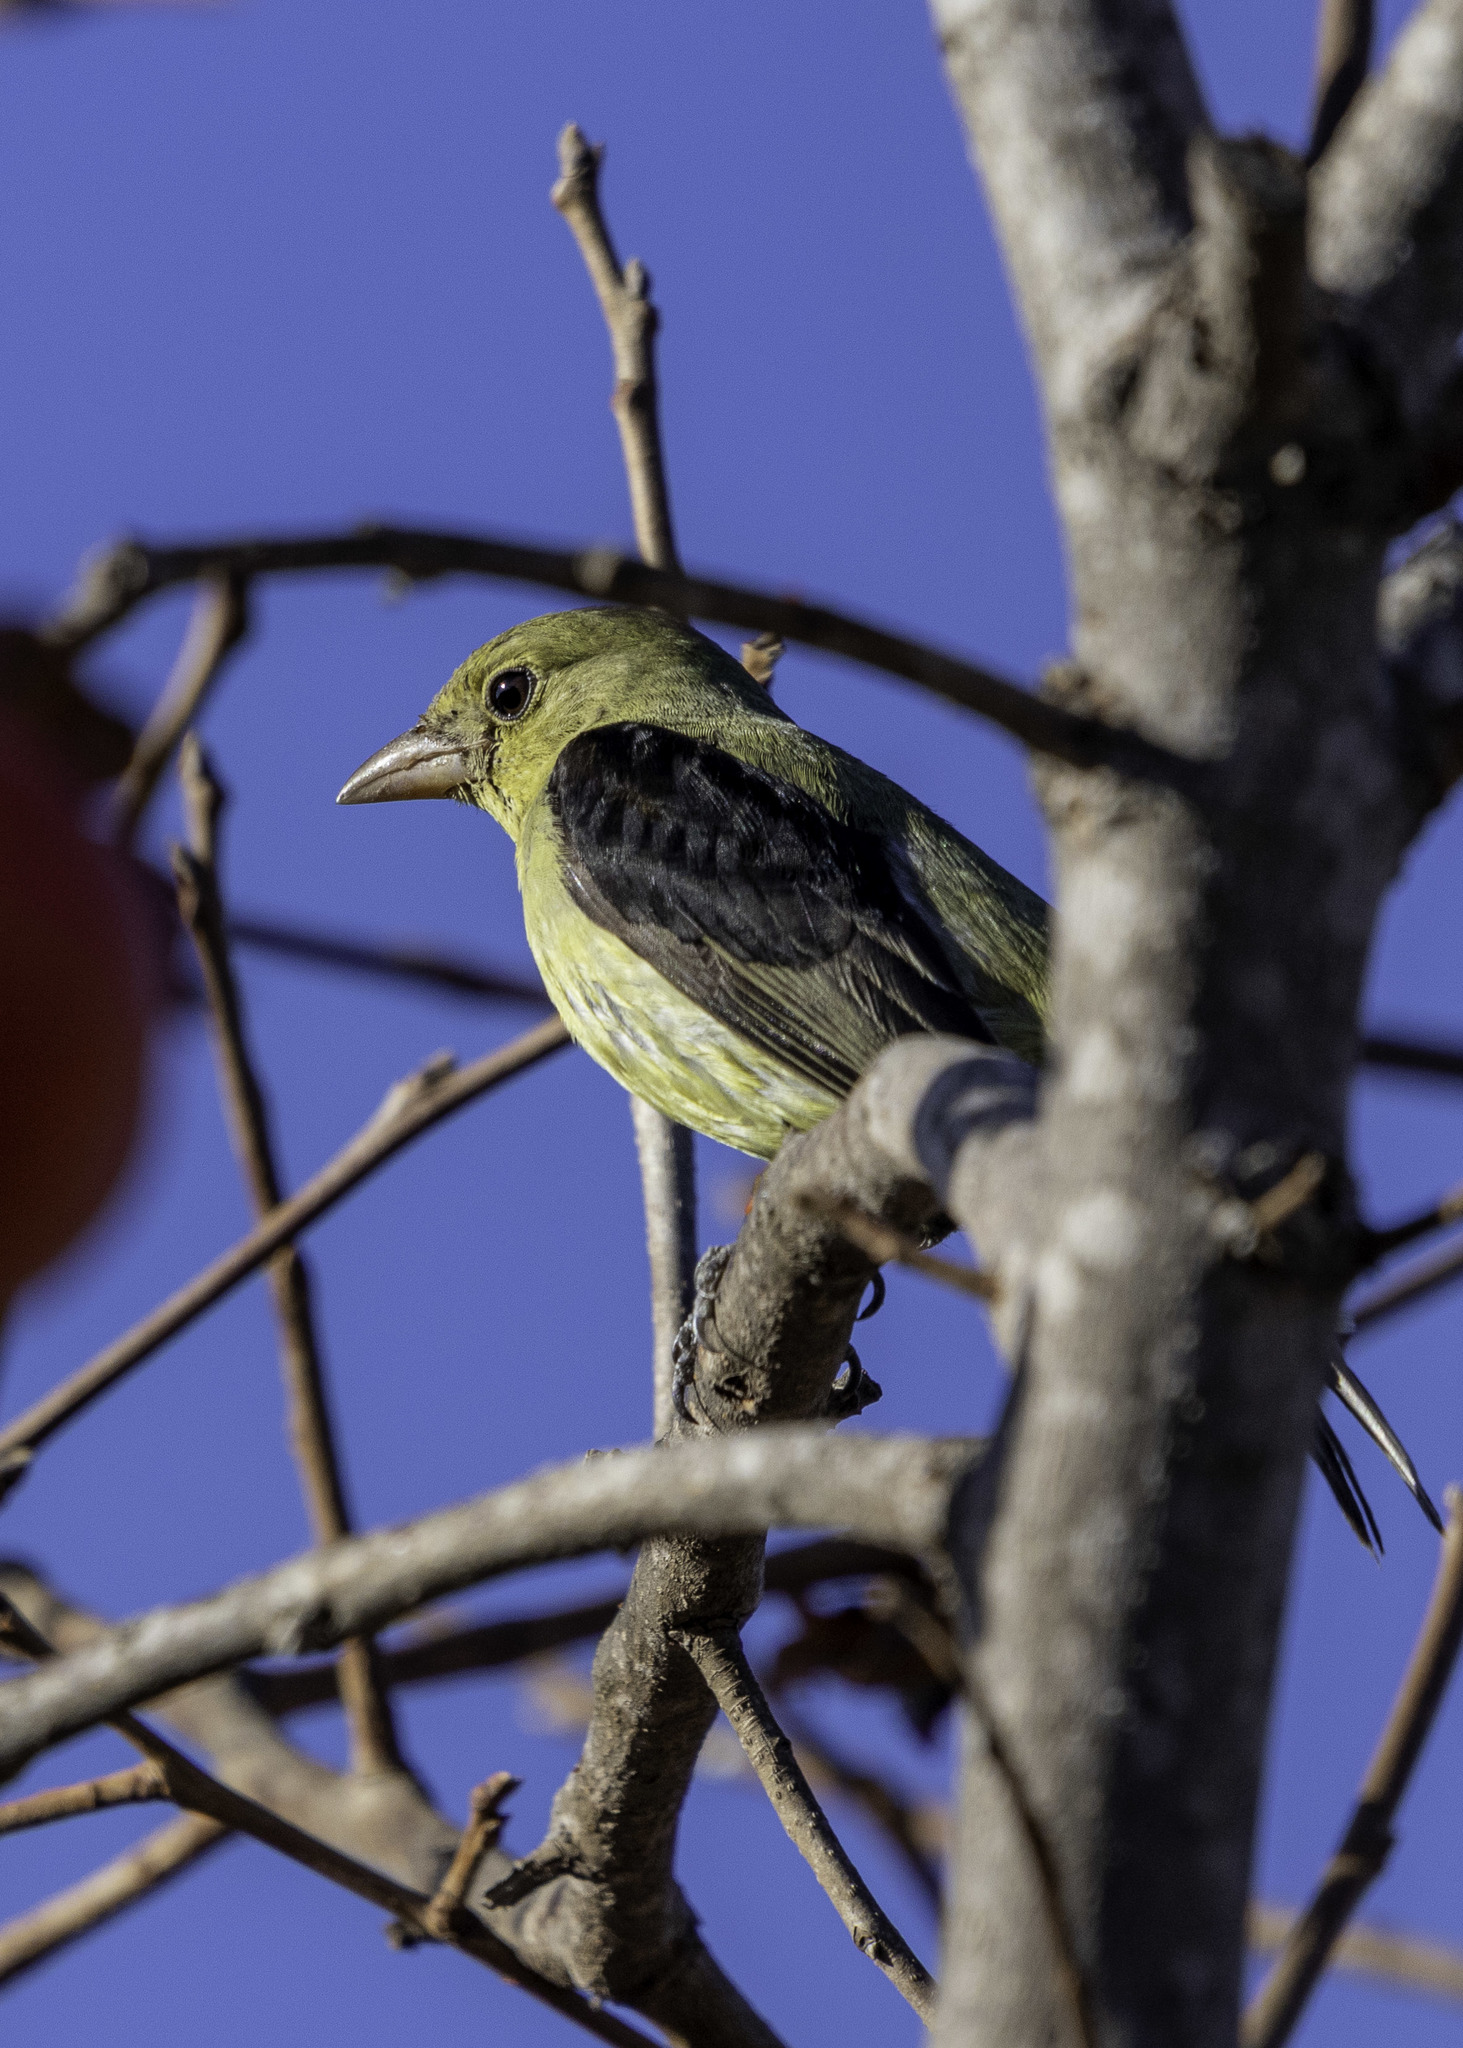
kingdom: Animalia
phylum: Chordata
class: Aves
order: Passeriformes
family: Cardinalidae
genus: Piranga
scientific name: Piranga olivacea
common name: Scarlet tanager
